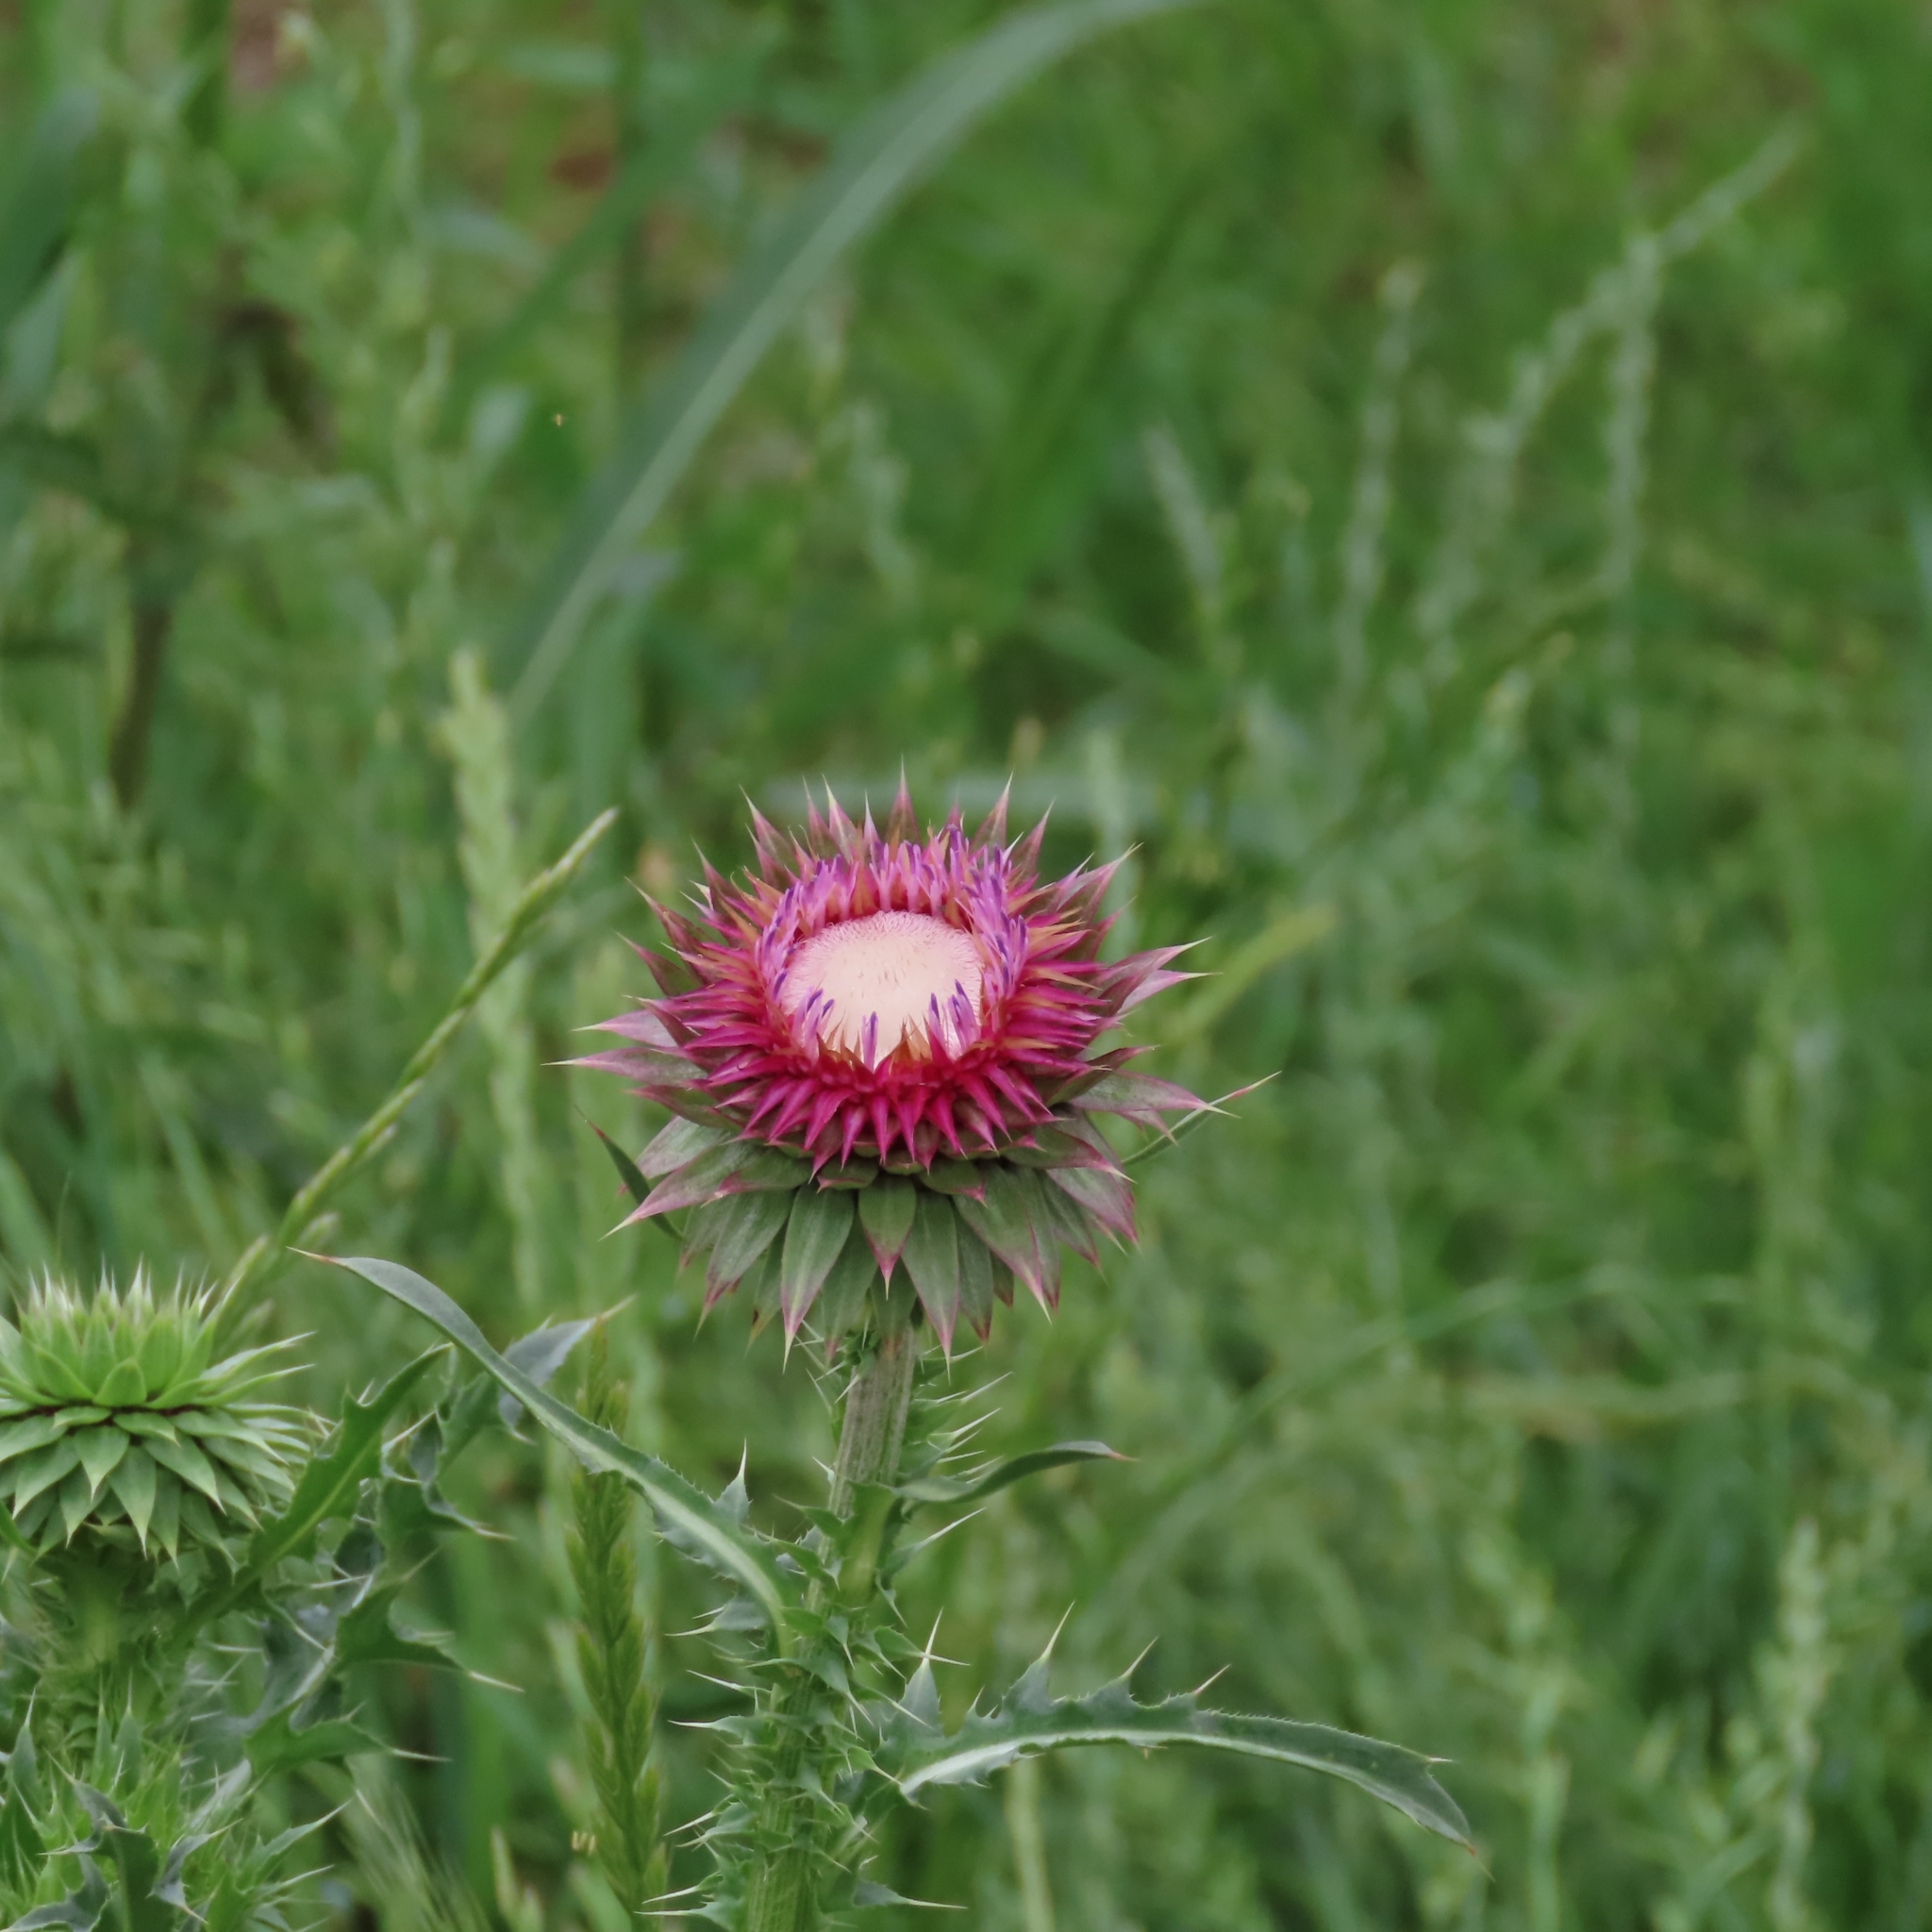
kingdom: Plantae
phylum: Tracheophyta
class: Magnoliopsida
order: Asterales
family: Asteraceae
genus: Carduus
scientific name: Carduus nutans
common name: Musk thistle
